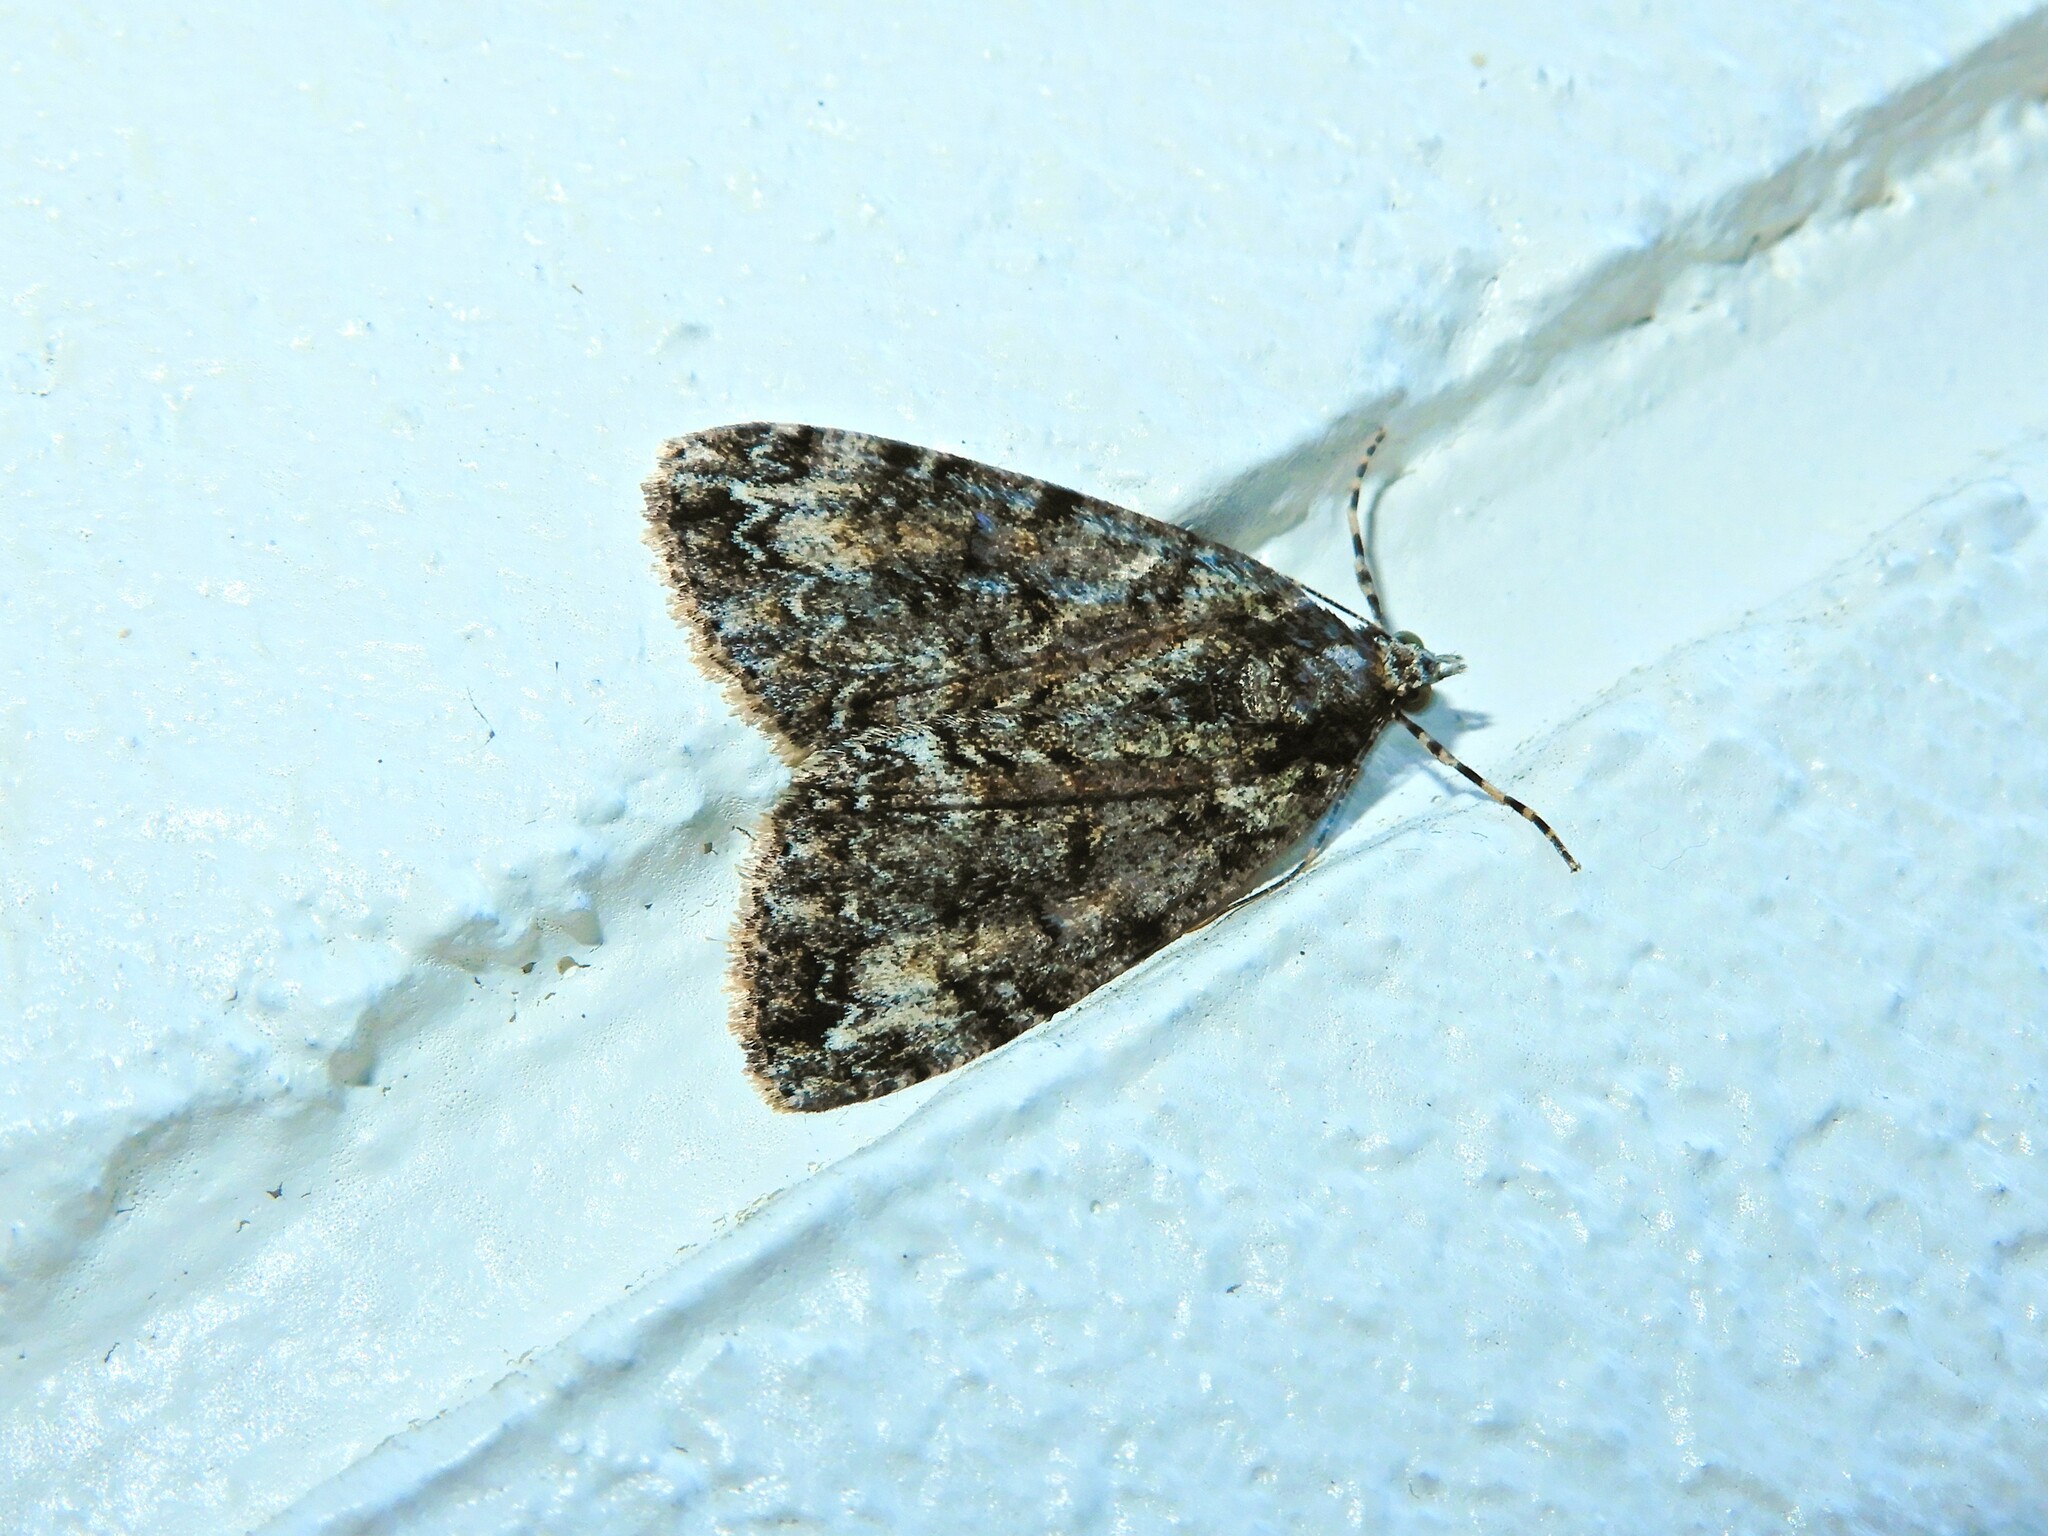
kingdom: Animalia
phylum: Arthropoda
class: Insecta
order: Lepidoptera
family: Geometridae
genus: Pseudocoremia
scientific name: Pseudocoremia suavis
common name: Common forest looper
